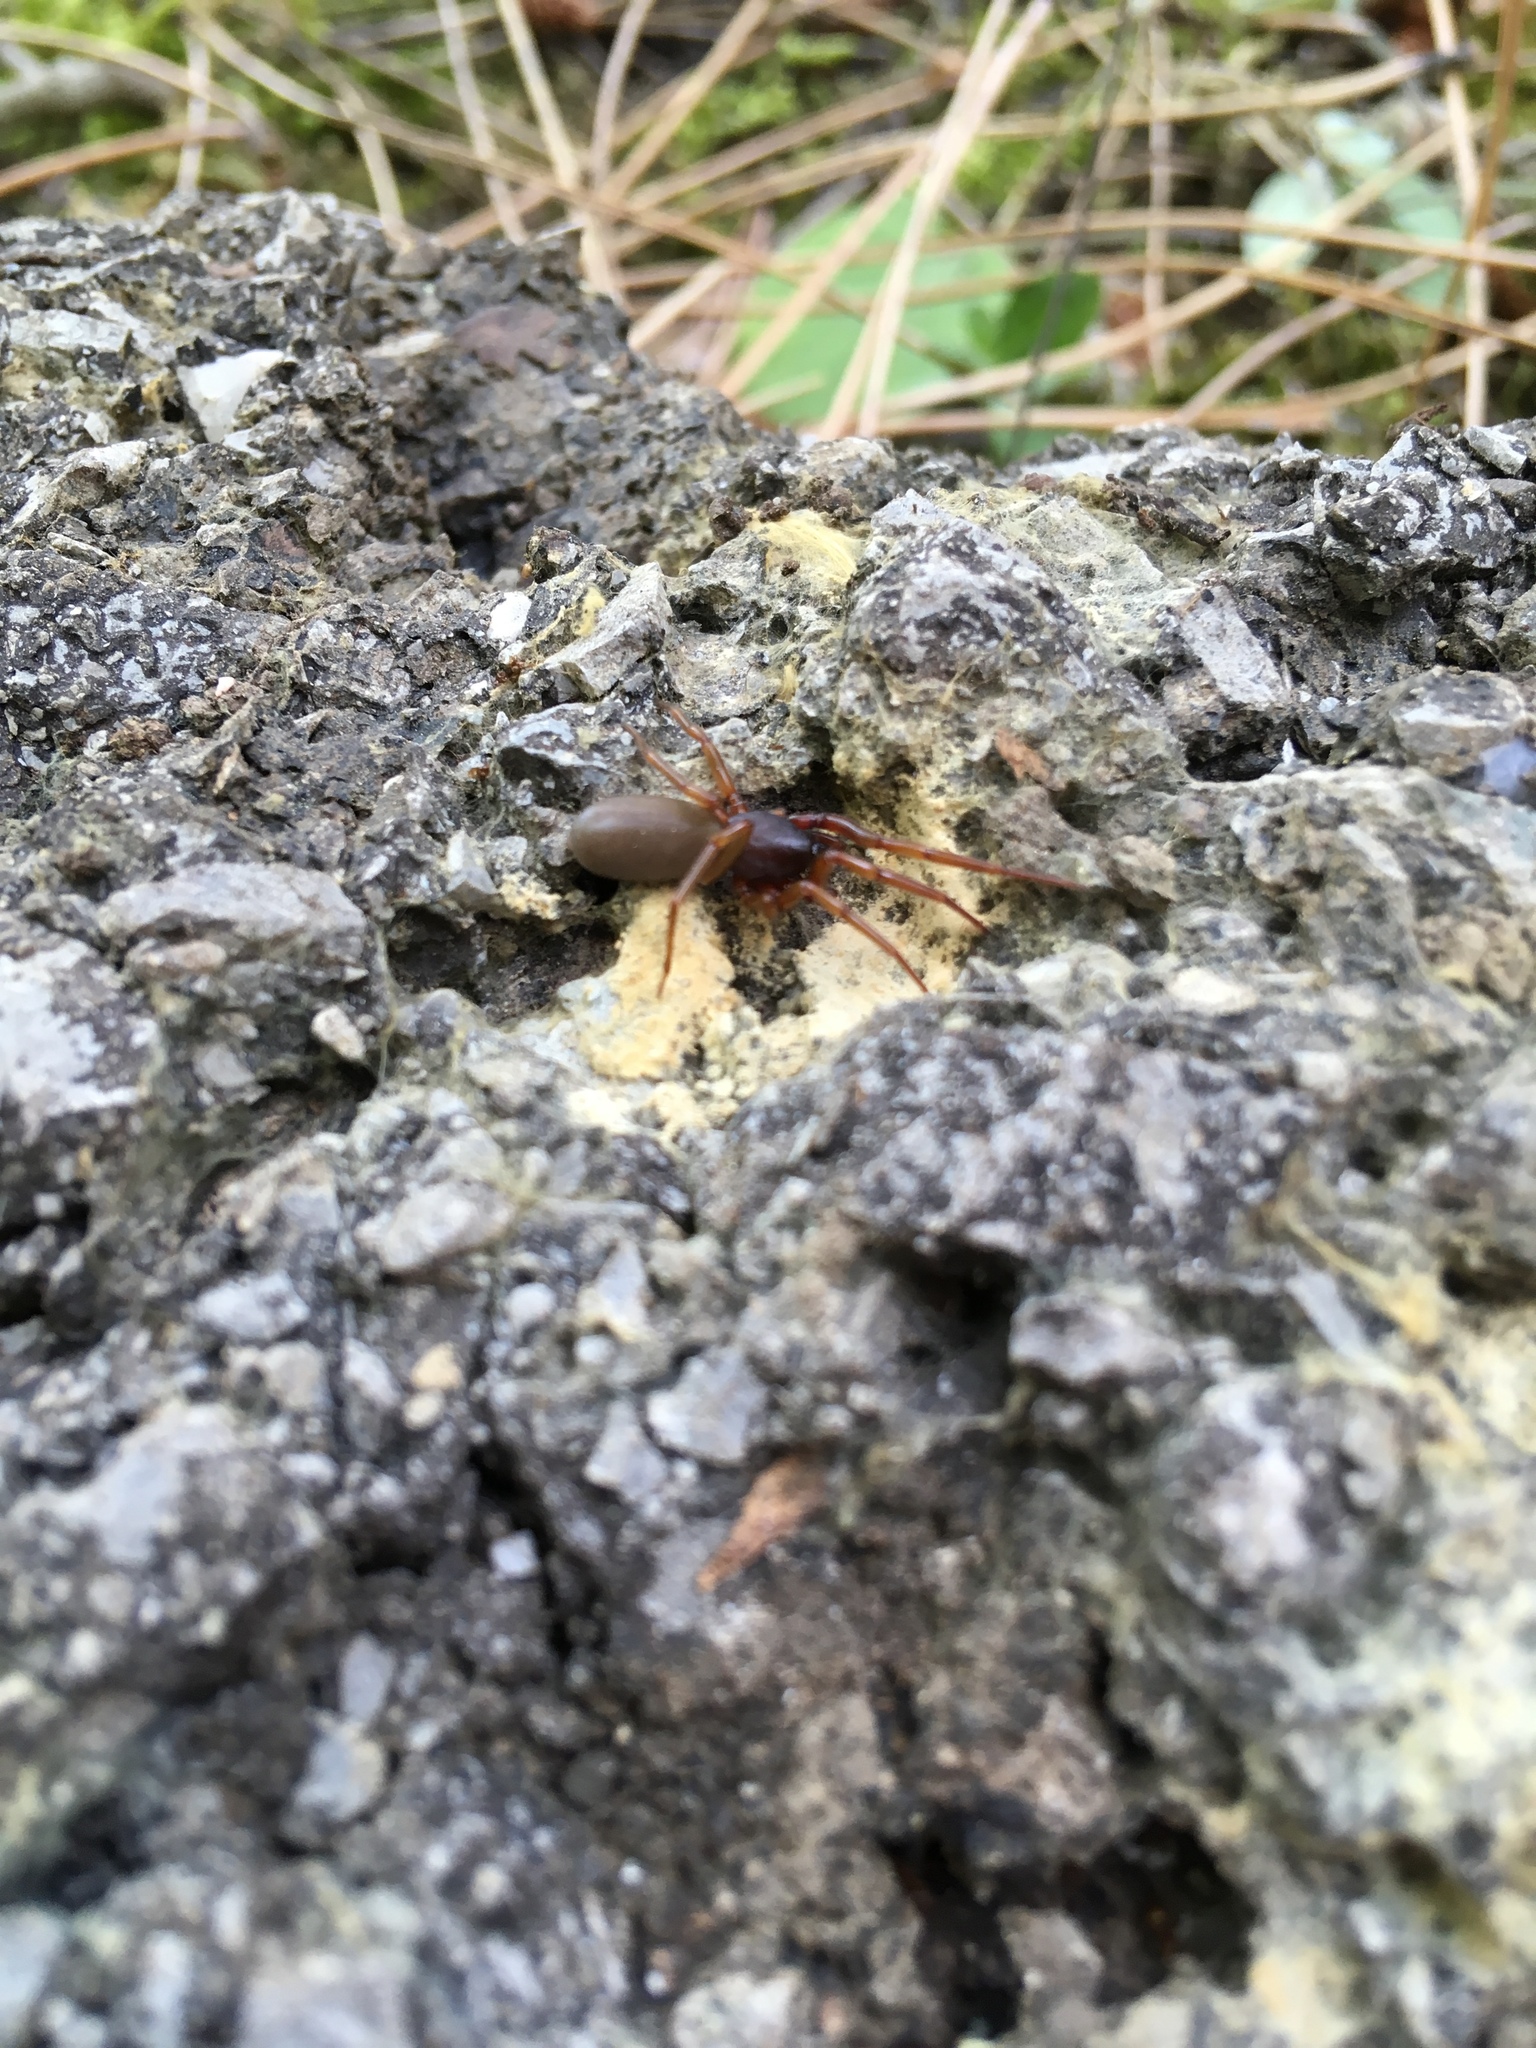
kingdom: Animalia
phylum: Arthropoda
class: Arachnida
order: Araneae
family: Dysderidae
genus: Dysdera
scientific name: Dysdera
